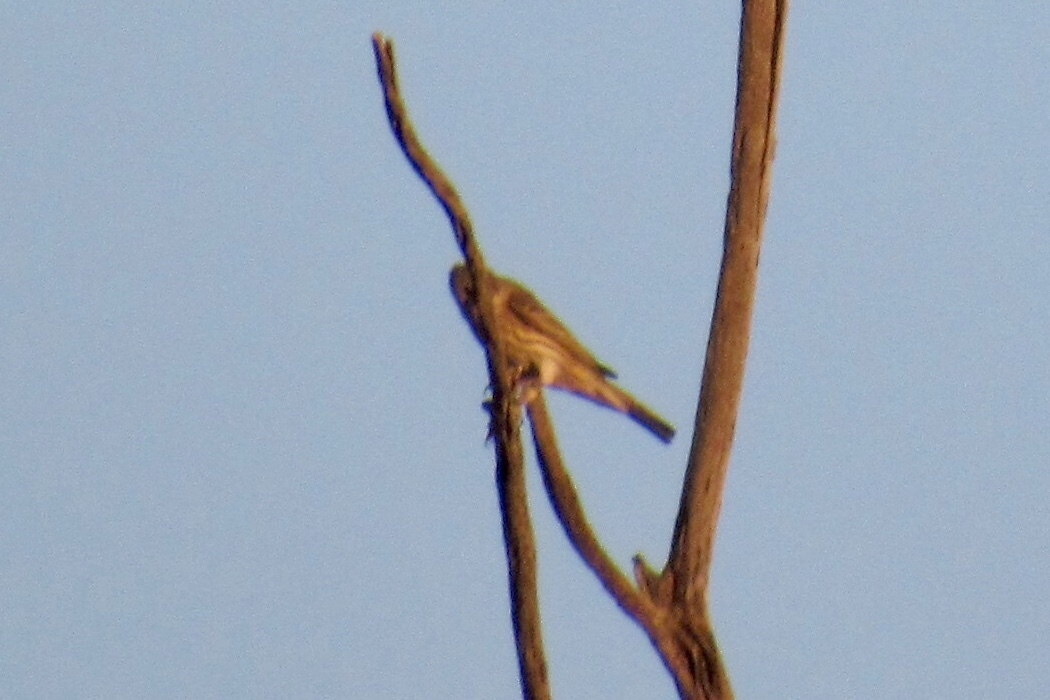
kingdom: Animalia
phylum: Chordata
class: Aves
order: Passeriformes
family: Fringillidae
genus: Haemorhous
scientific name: Haemorhous mexicanus
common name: House finch
